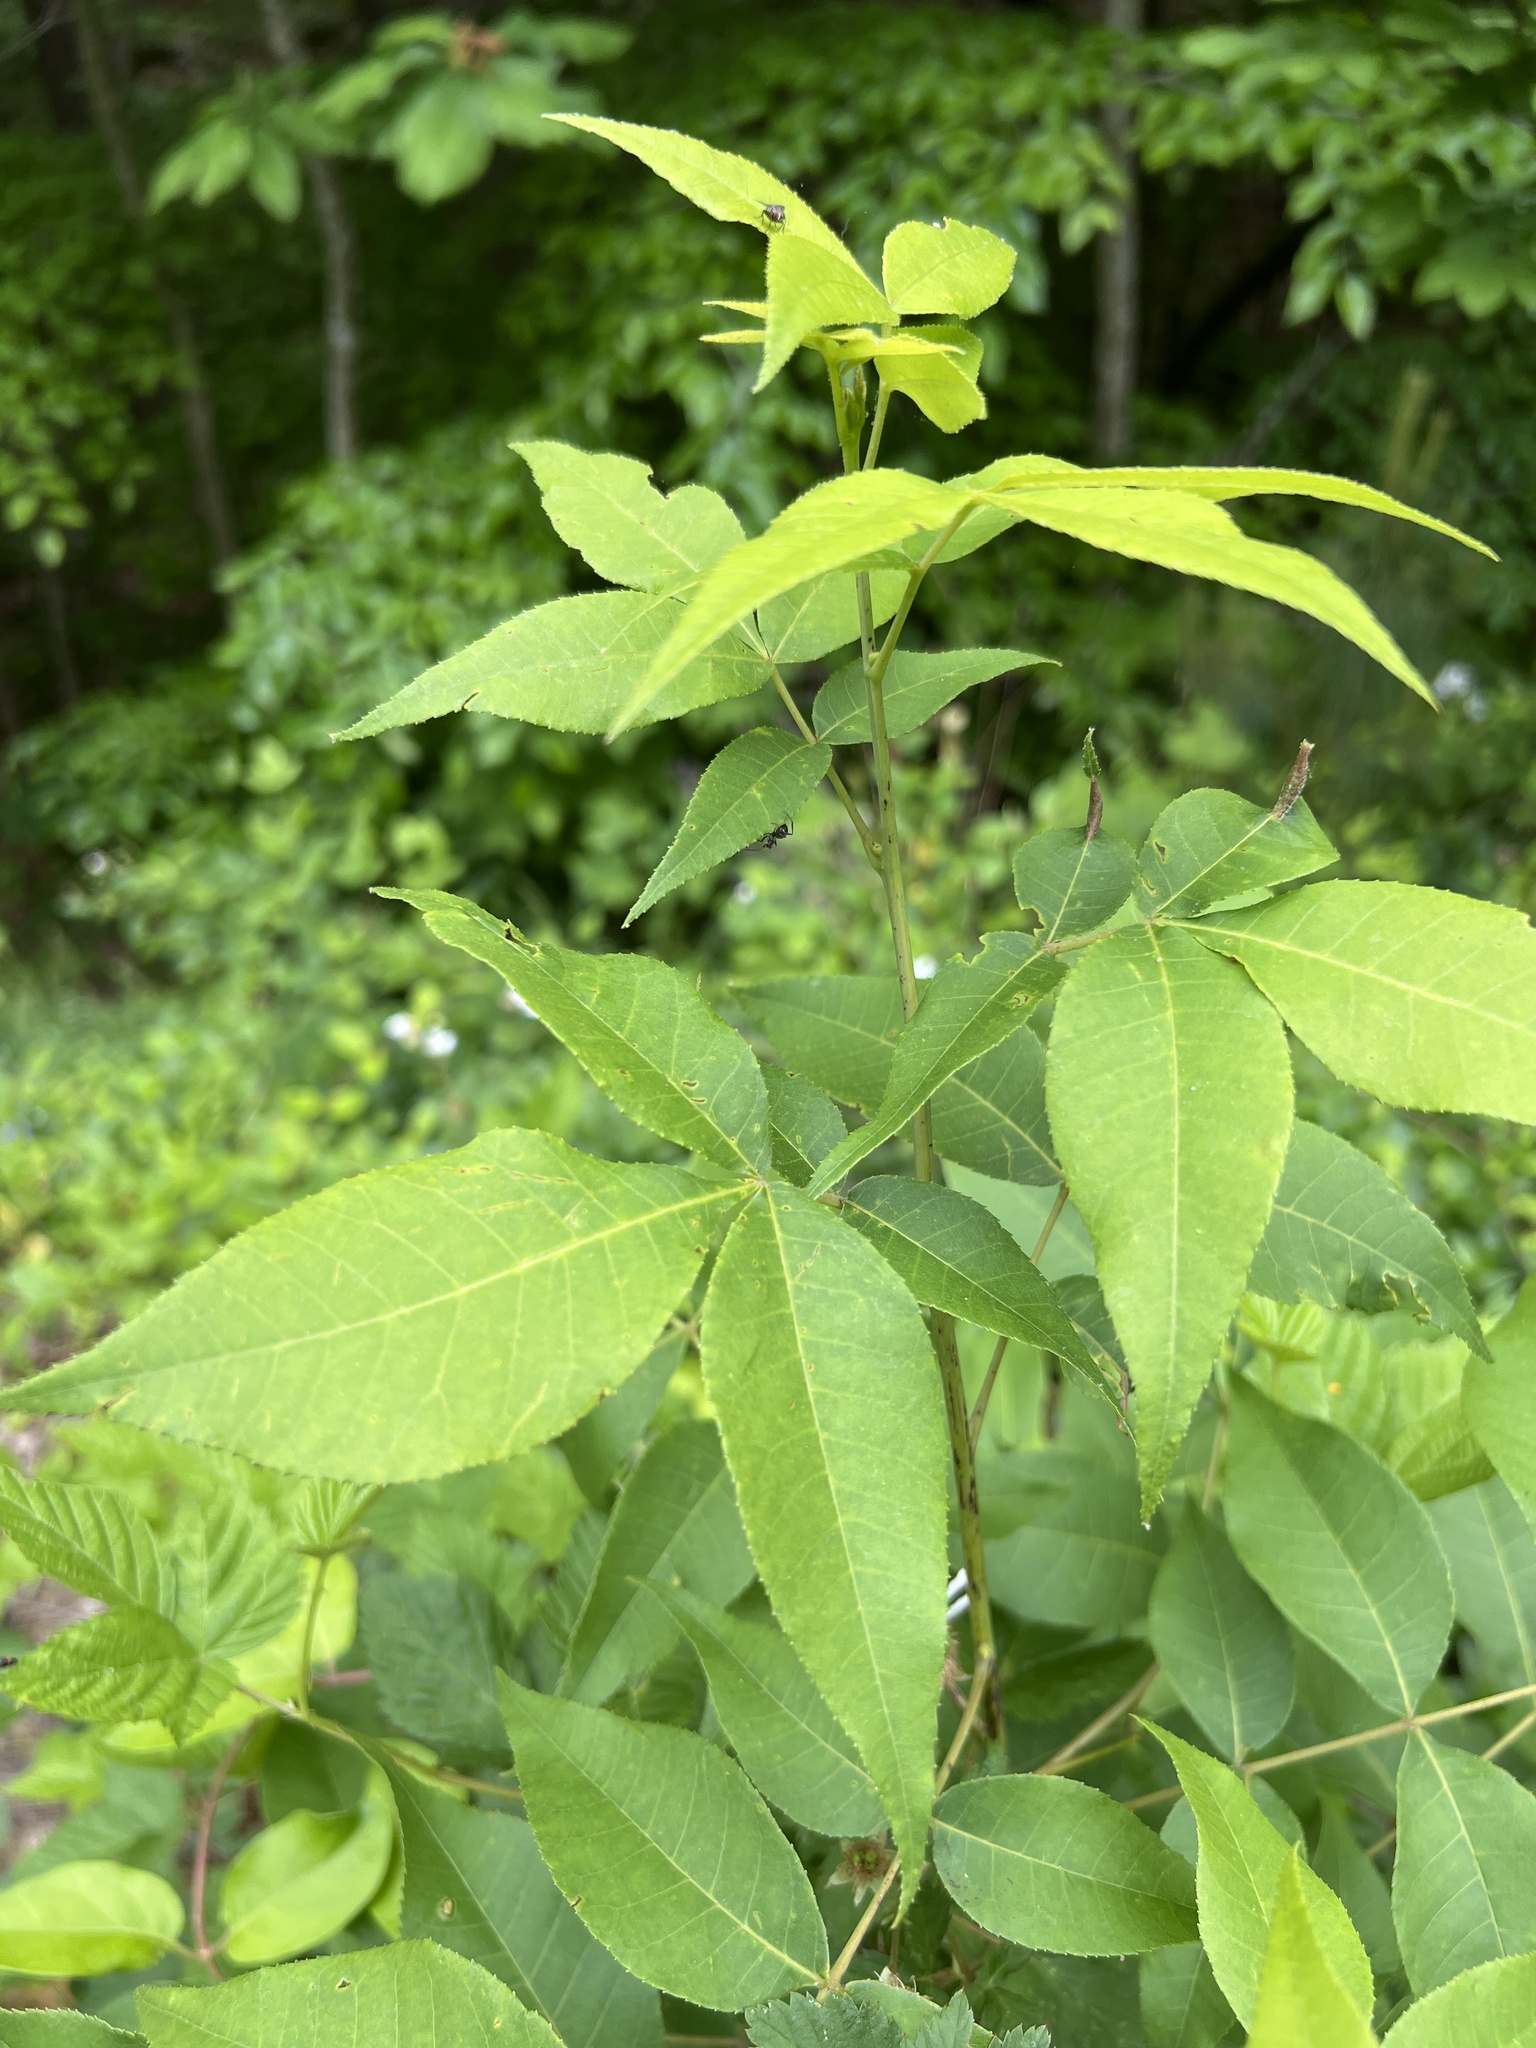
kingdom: Plantae
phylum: Tracheophyta
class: Magnoliopsida
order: Fagales
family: Juglandaceae
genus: Carya
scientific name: Carya glabra
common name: Pignut hickory
